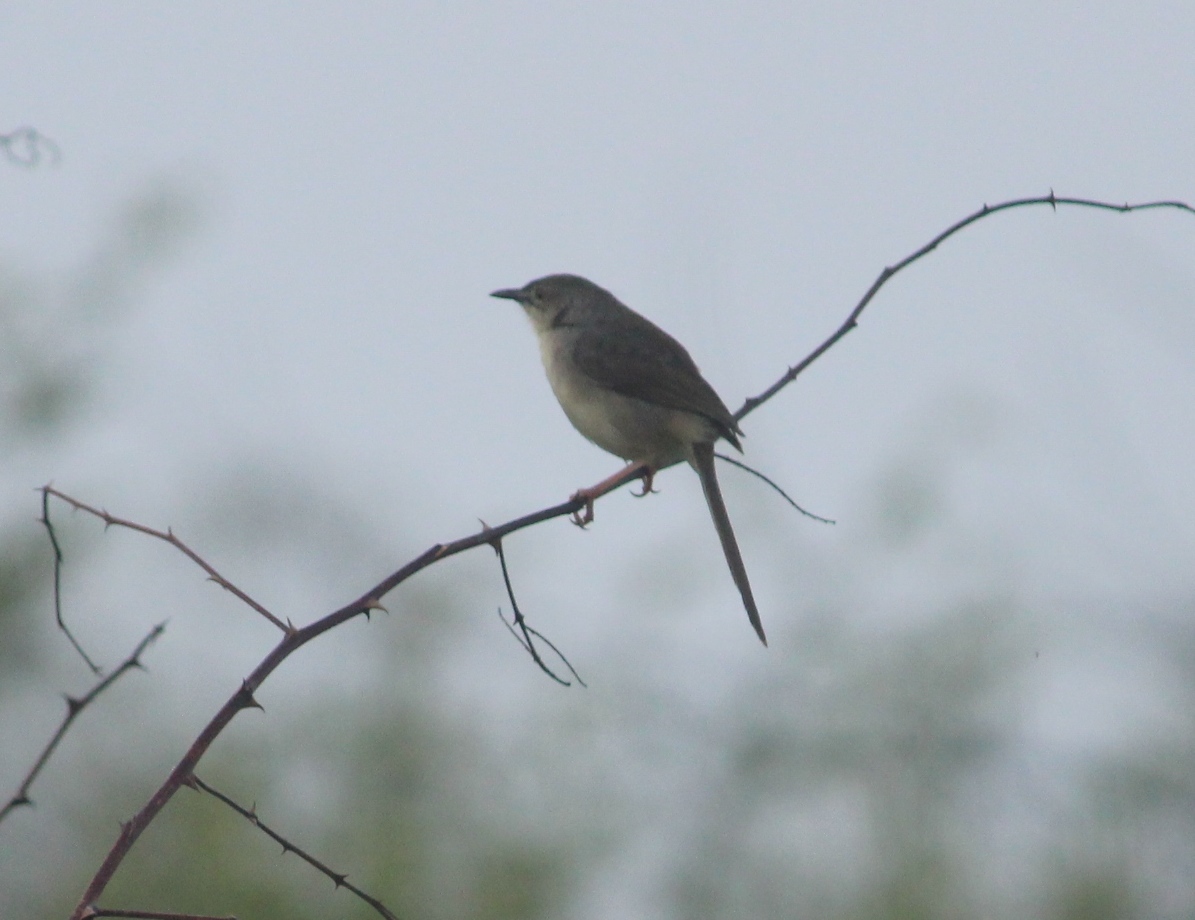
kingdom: Animalia
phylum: Chordata
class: Aves
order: Passeriformes
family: Cisticolidae
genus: Prinia
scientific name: Prinia sylvatica
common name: Jungle prinia
